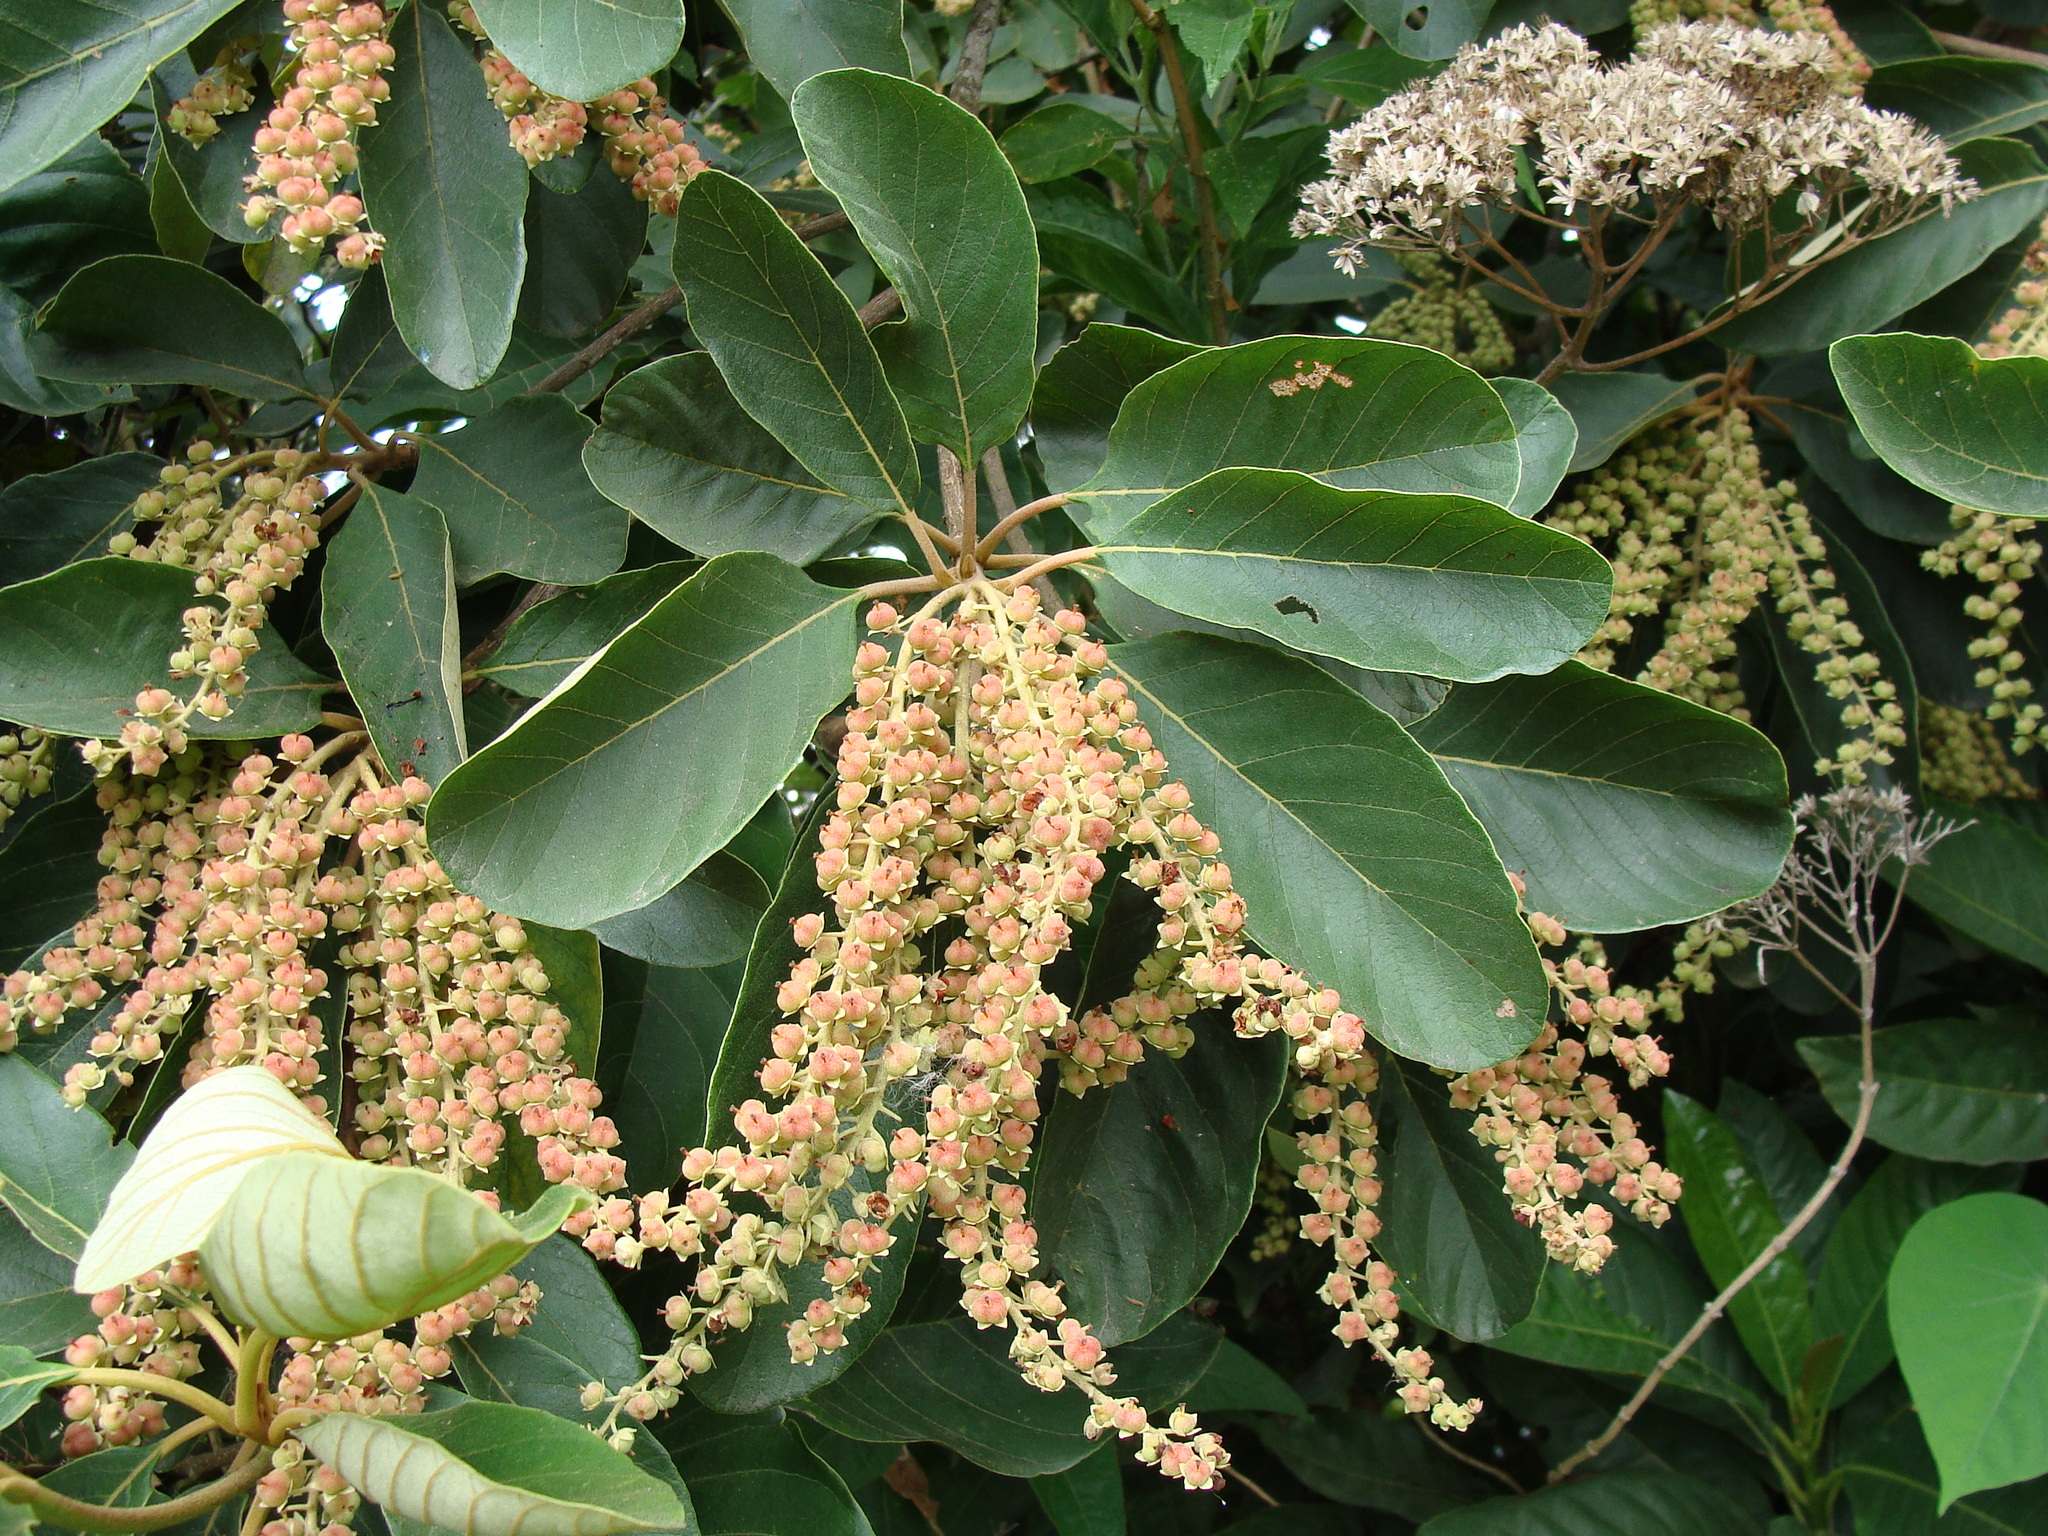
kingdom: Plantae
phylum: Tracheophyta
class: Magnoliopsida
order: Ericales
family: Clethraceae
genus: Clethra
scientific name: Clethra mexicana
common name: Nance macho
